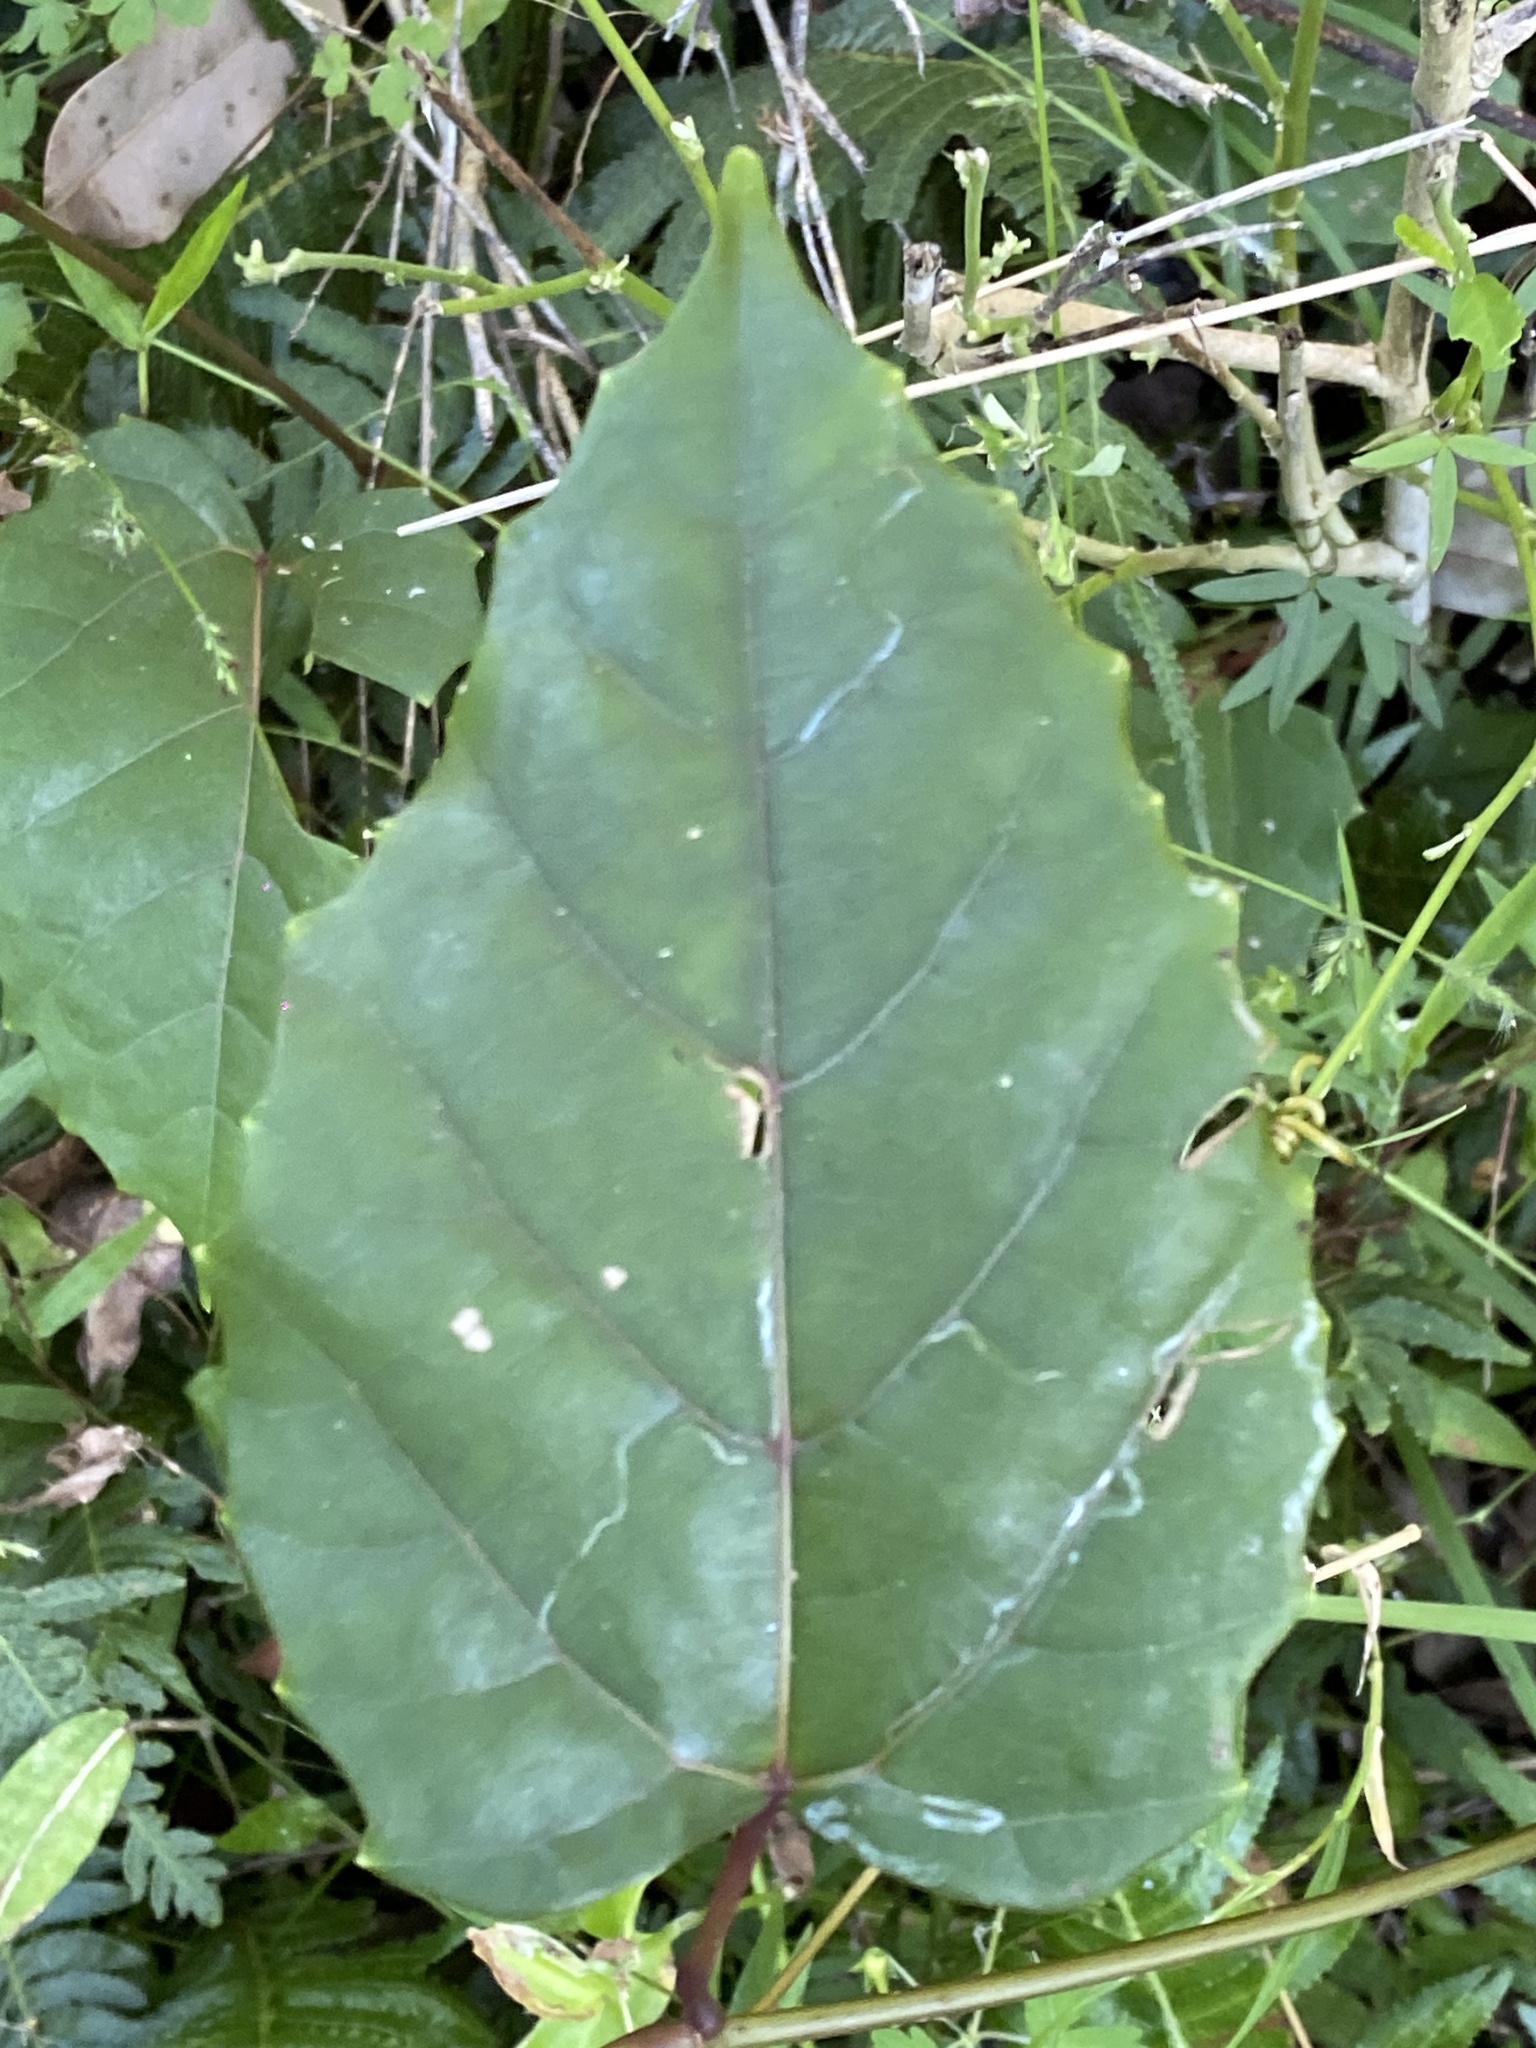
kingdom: Plantae
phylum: Tracheophyta
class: Magnoliopsida
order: Vitales
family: Vitaceae
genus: Cissus
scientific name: Cissus antarctica
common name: Kangaroo vine
